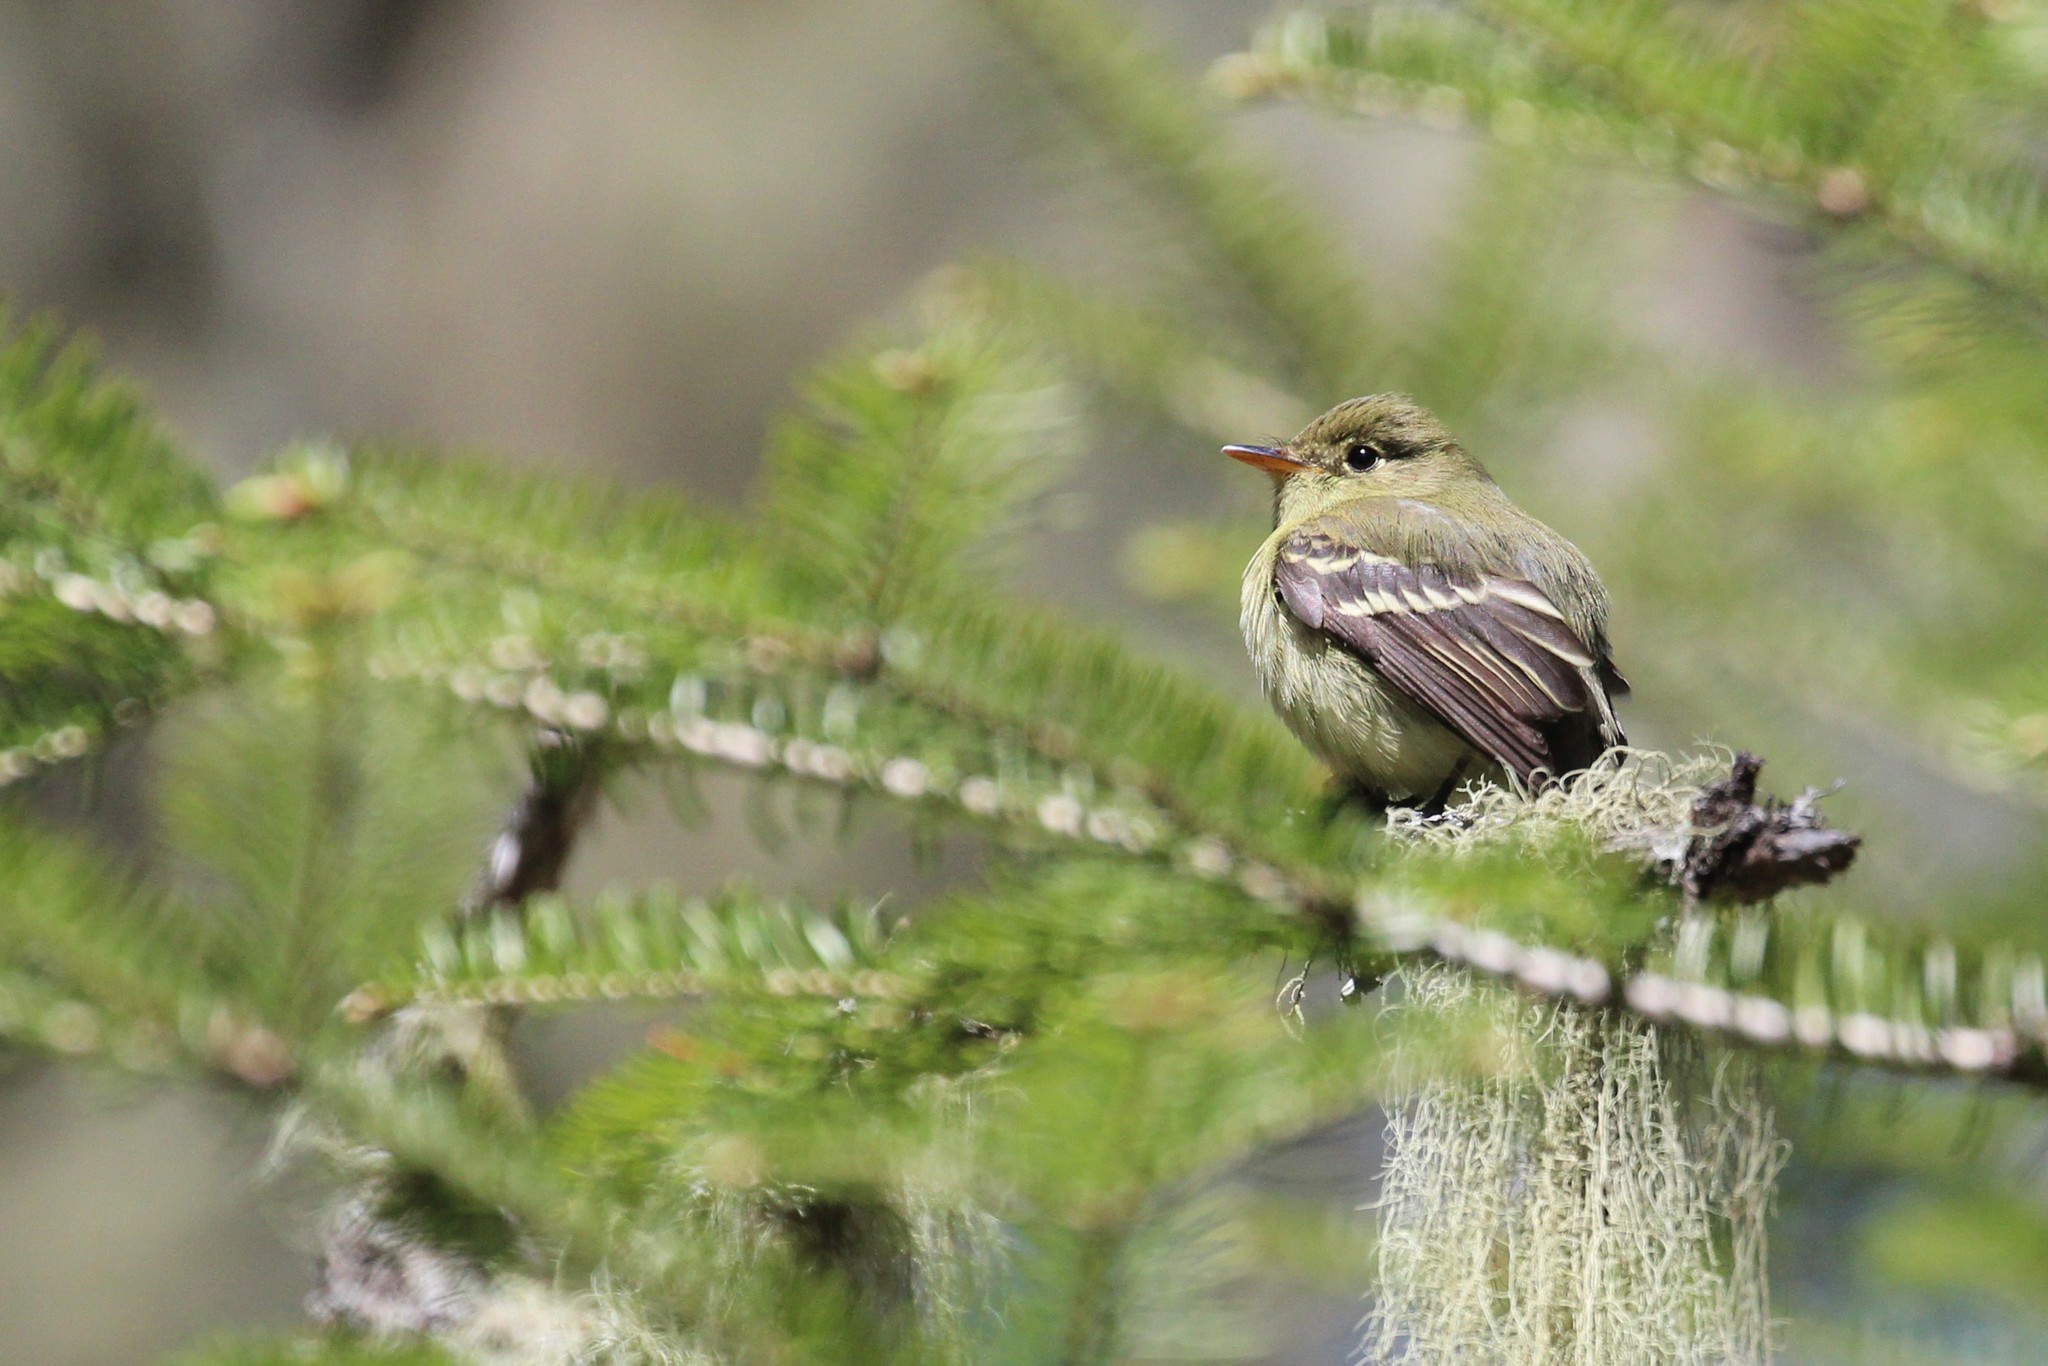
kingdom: Animalia
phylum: Chordata
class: Aves
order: Passeriformes
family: Tyrannidae
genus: Empidonax
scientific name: Empidonax flaviventris
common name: Yellow-bellied flycatcher
